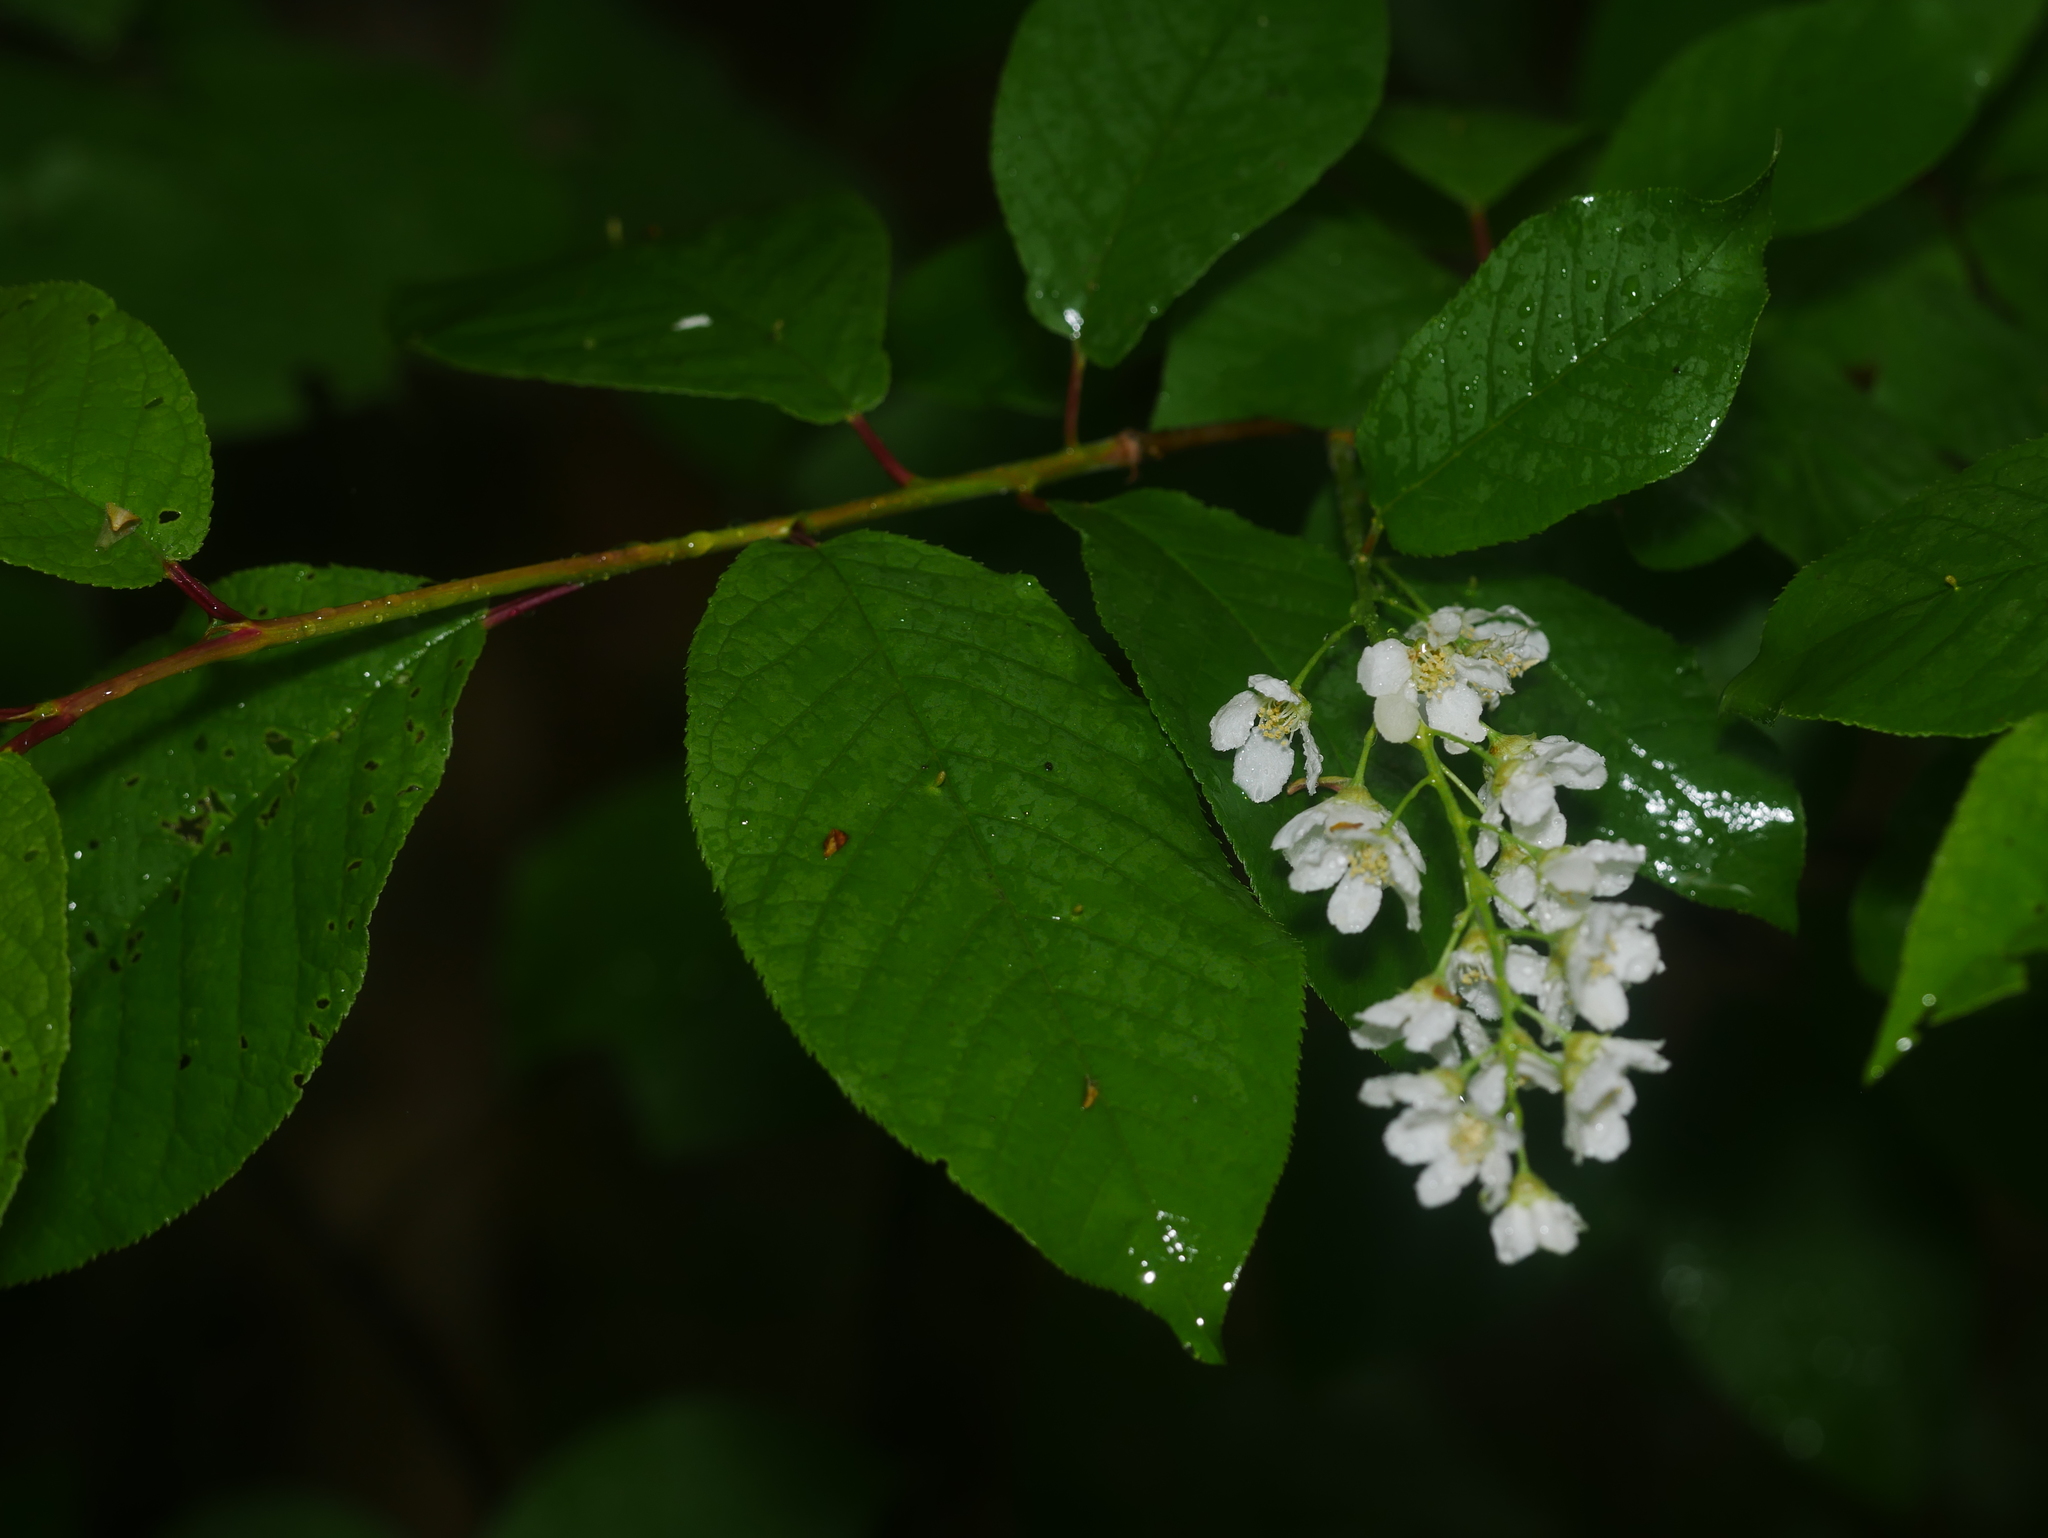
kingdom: Plantae
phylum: Tracheophyta
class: Magnoliopsida
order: Rosales
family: Rosaceae
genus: Prunus
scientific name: Prunus padus
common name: Bird cherry
